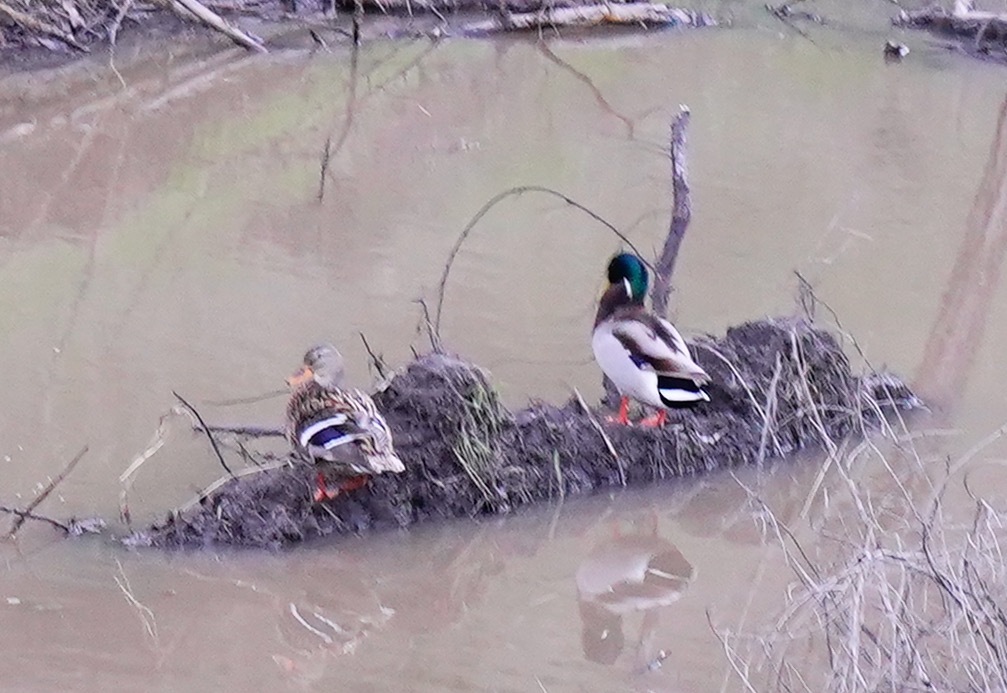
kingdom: Animalia
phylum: Chordata
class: Aves
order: Anseriformes
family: Anatidae
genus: Anas
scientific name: Anas platyrhynchos
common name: Mallard
